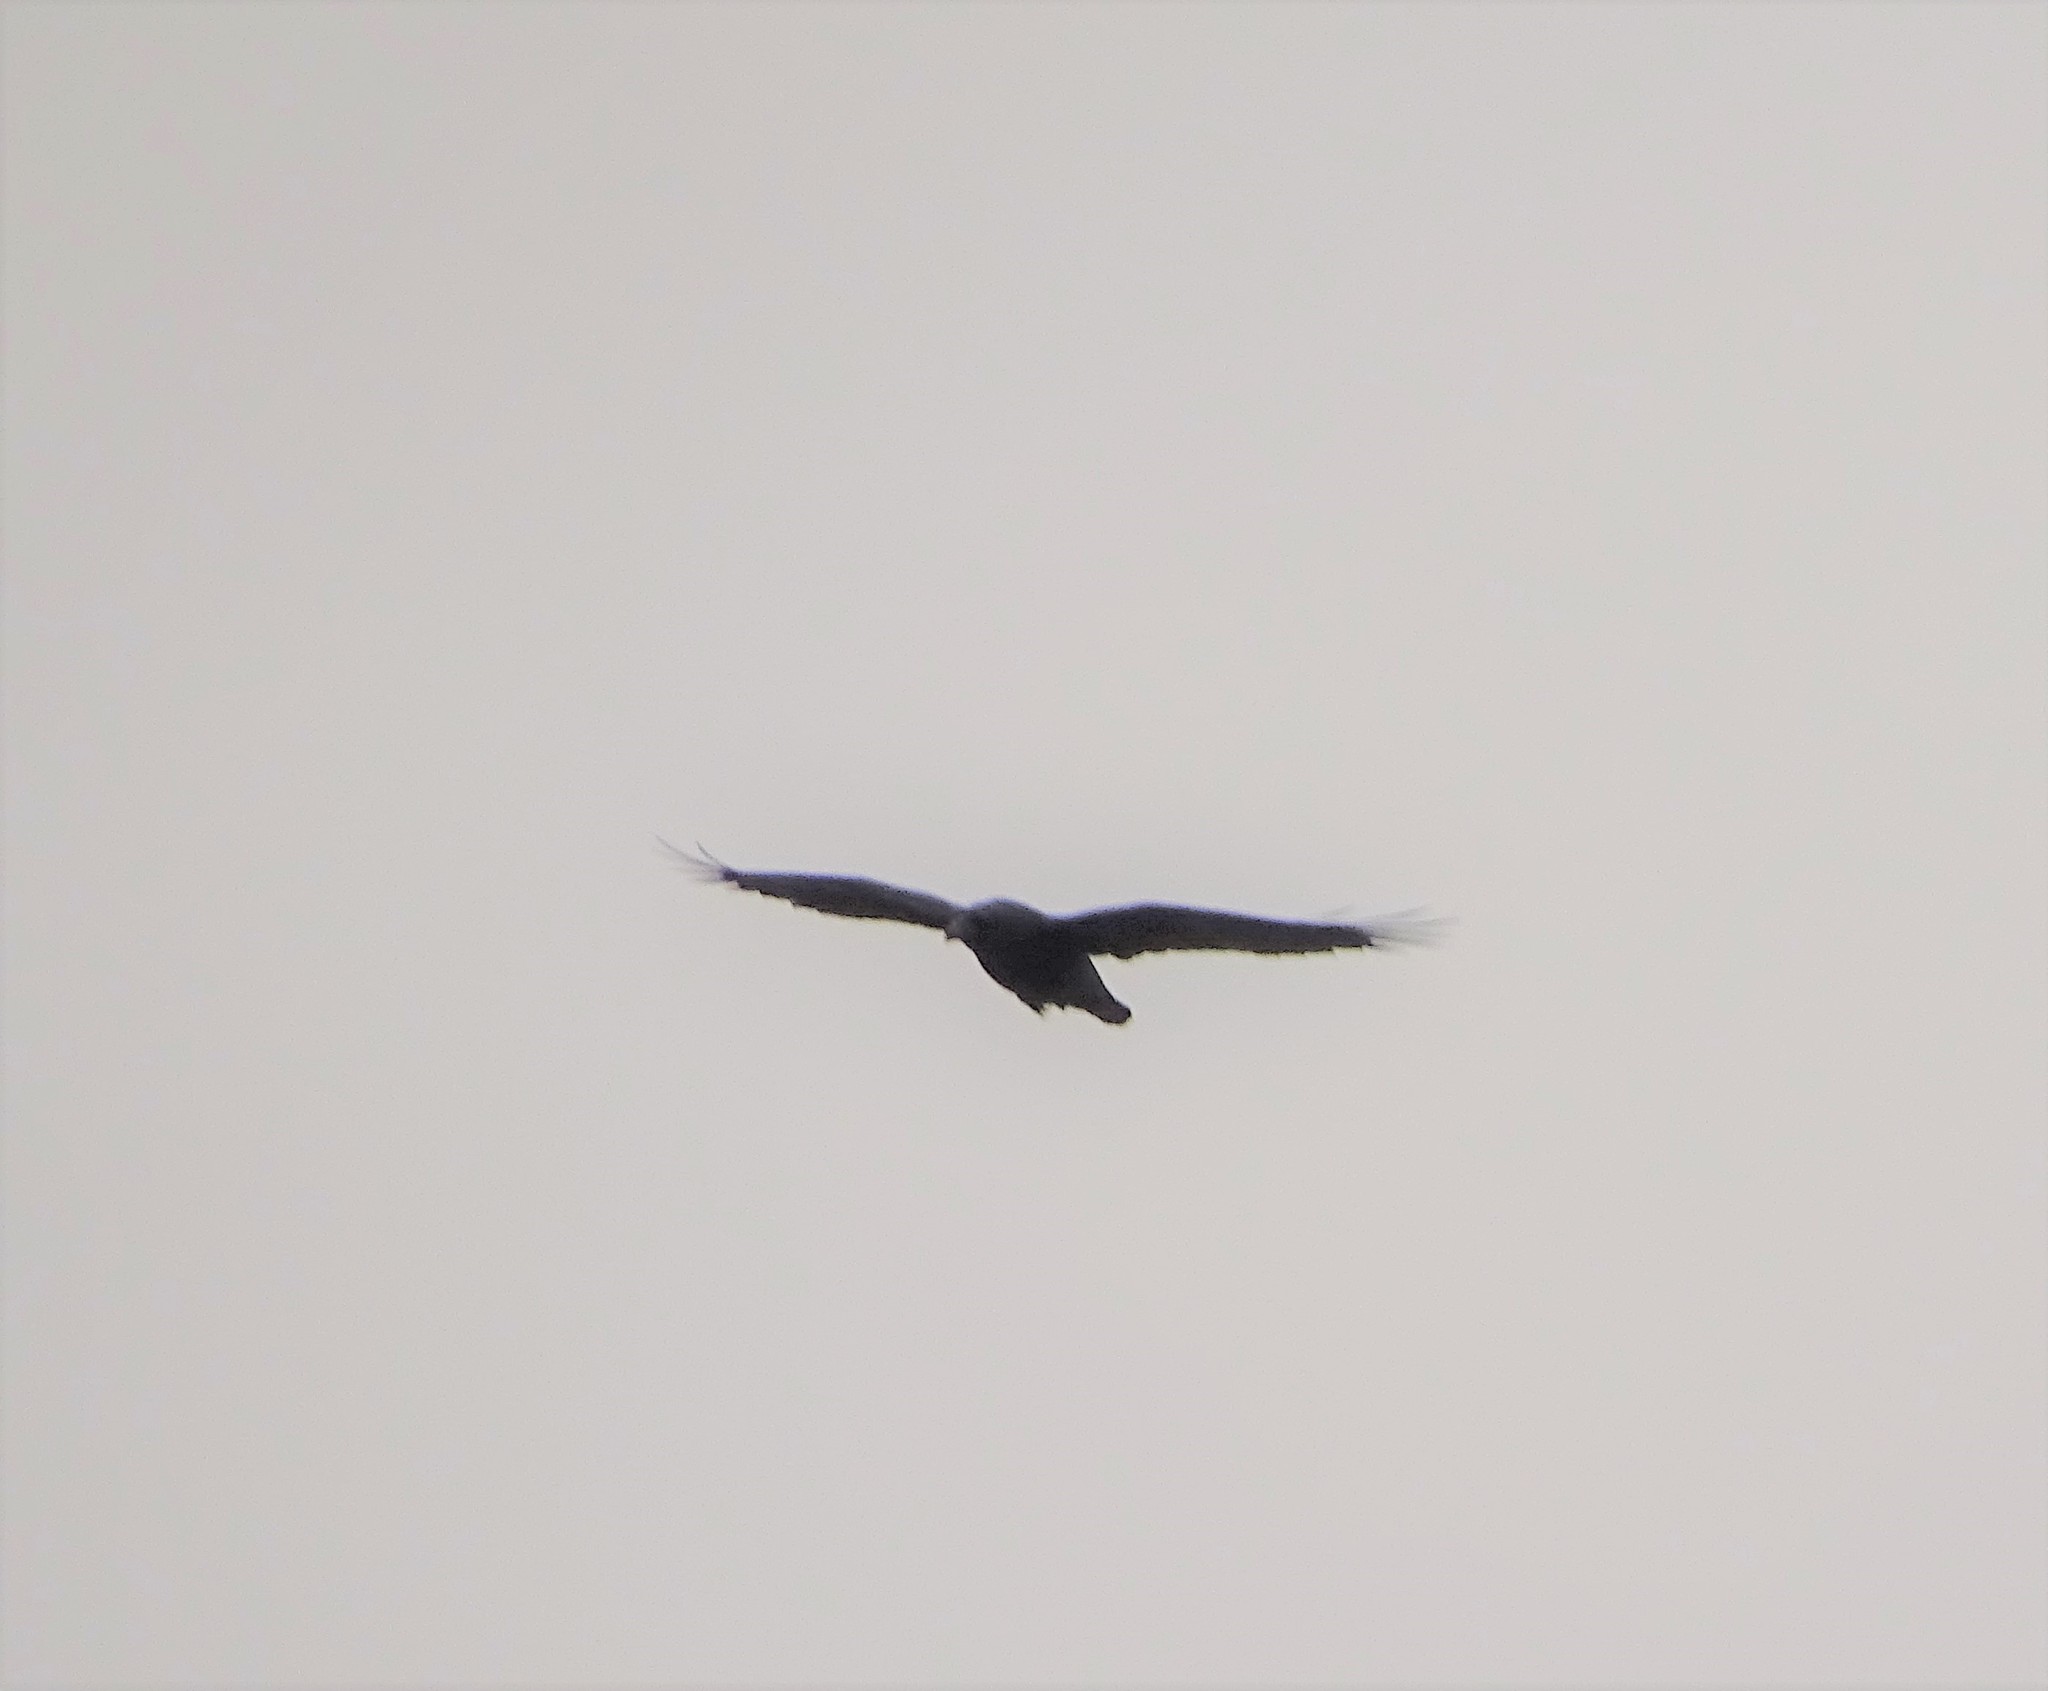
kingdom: Animalia
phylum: Chordata
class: Aves
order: Passeriformes
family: Corvidae
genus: Corvus
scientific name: Corvus corax
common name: Common raven
